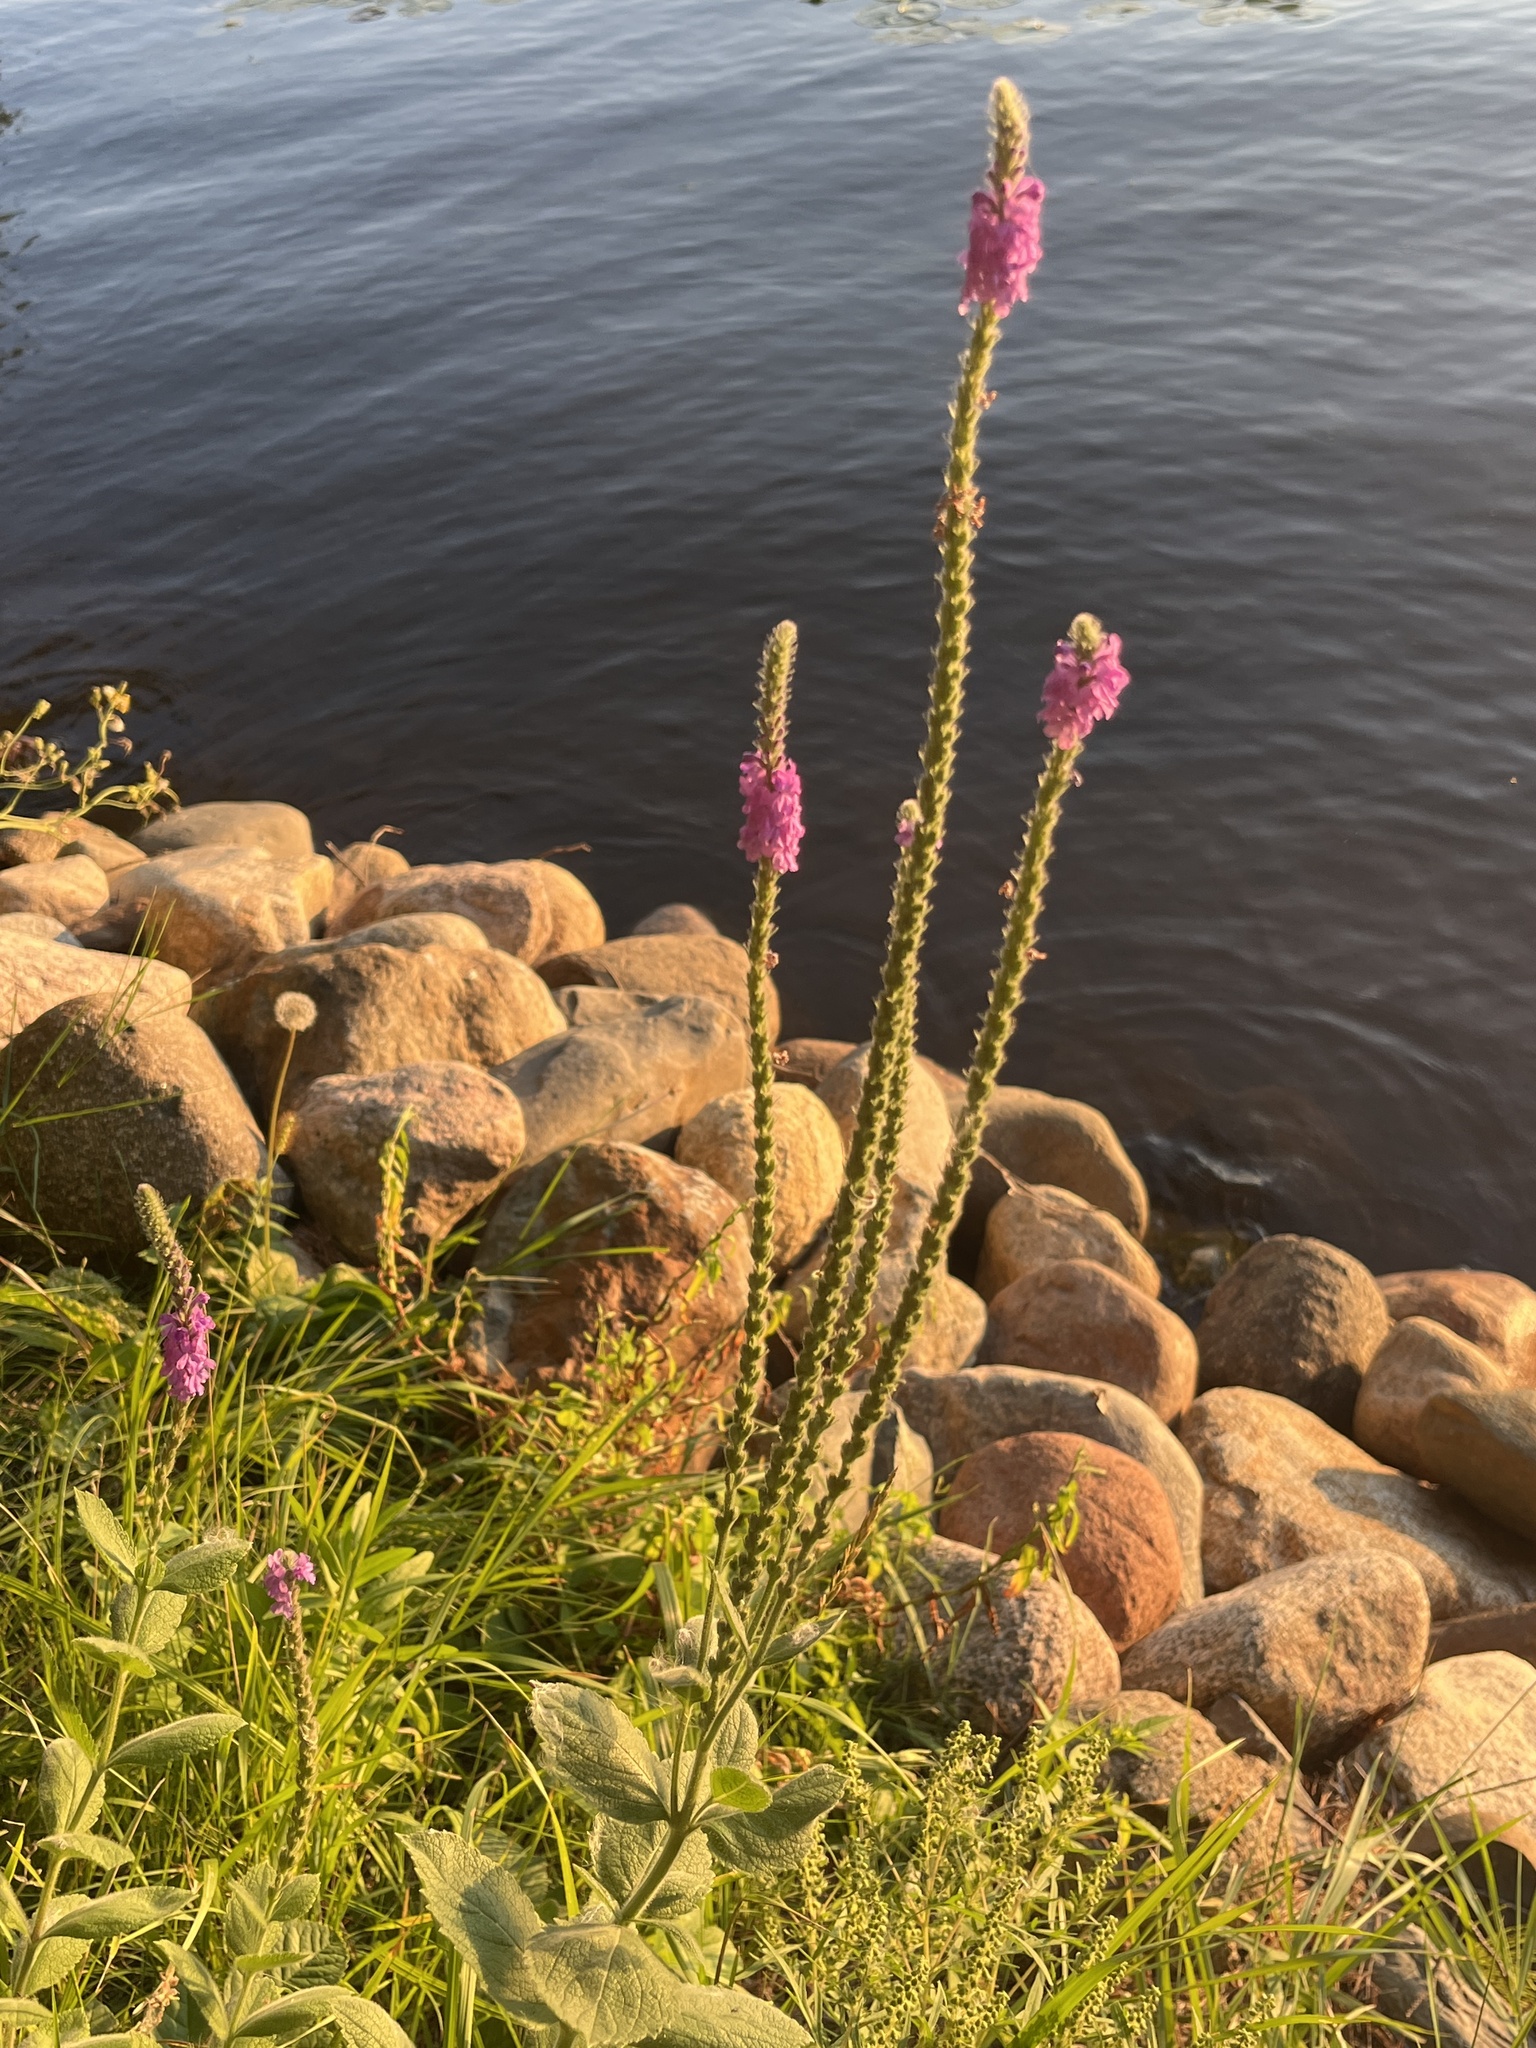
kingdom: Plantae
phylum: Tracheophyta
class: Magnoliopsida
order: Lamiales
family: Verbenaceae
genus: Verbena
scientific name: Verbena stricta
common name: Hoary vervain
